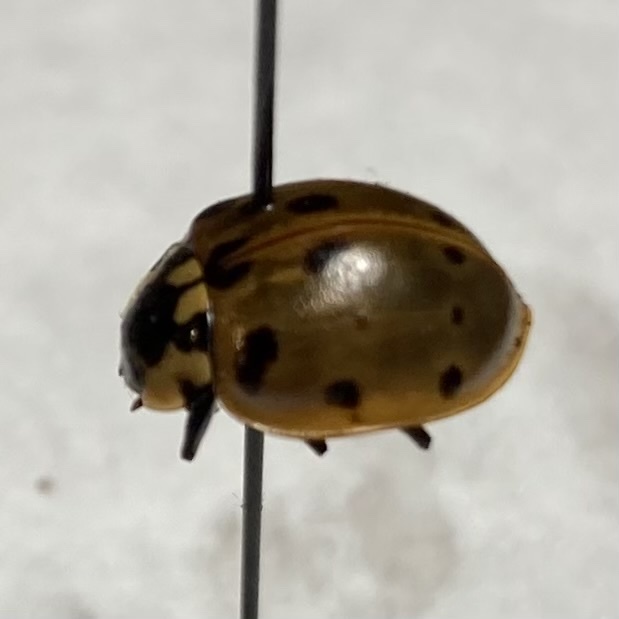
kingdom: Animalia
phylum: Arthropoda
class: Insecta
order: Coleoptera
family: Coccinellidae
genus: Anatis
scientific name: Anatis labiculata
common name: Fifteen-spotted lady beetle
